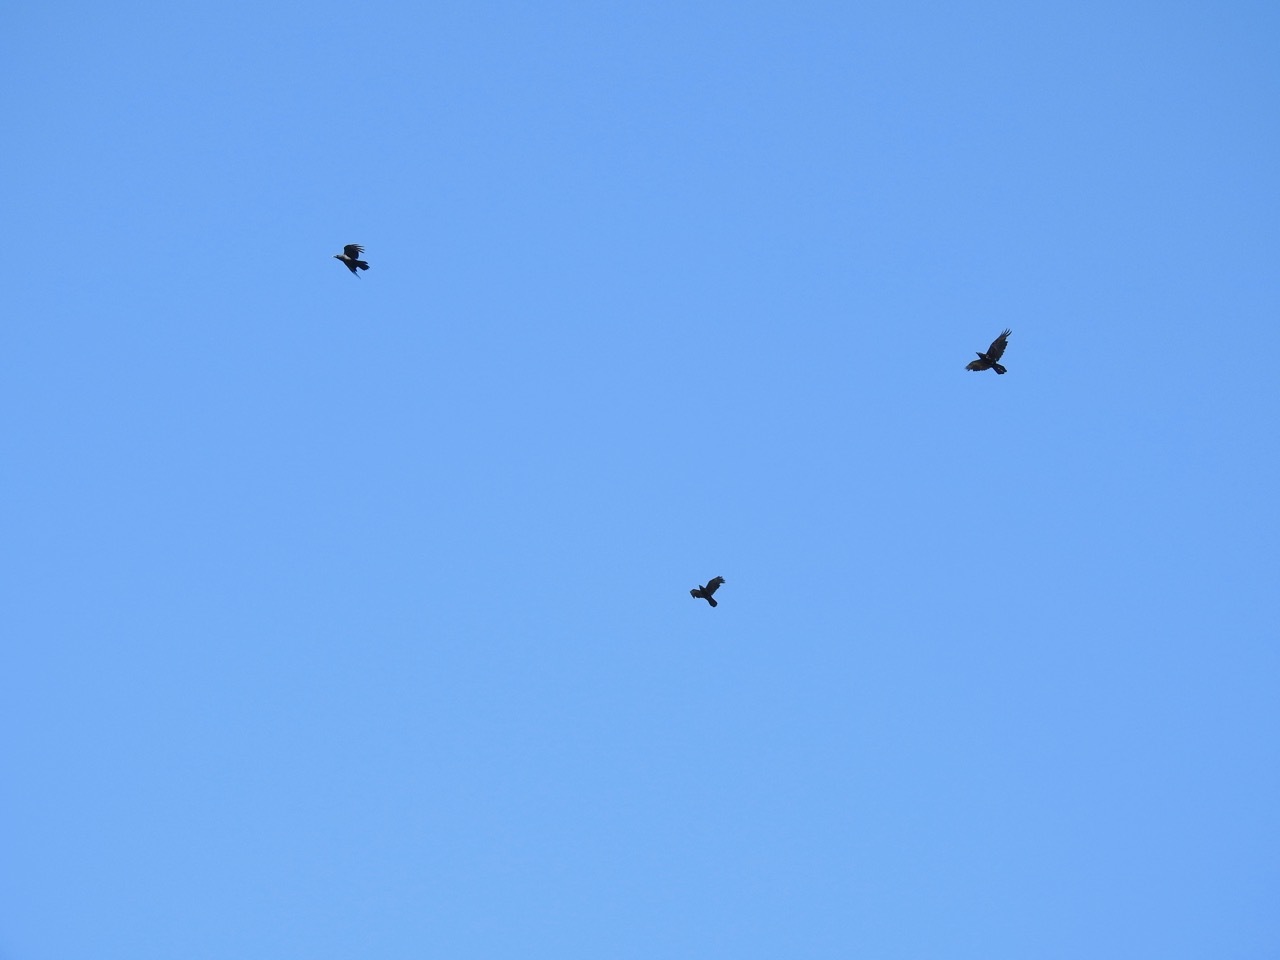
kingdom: Animalia
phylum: Chordata
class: Aves
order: Passeriformes
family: Corvidae
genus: Corvus
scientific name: Corvus corax
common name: Common raven
